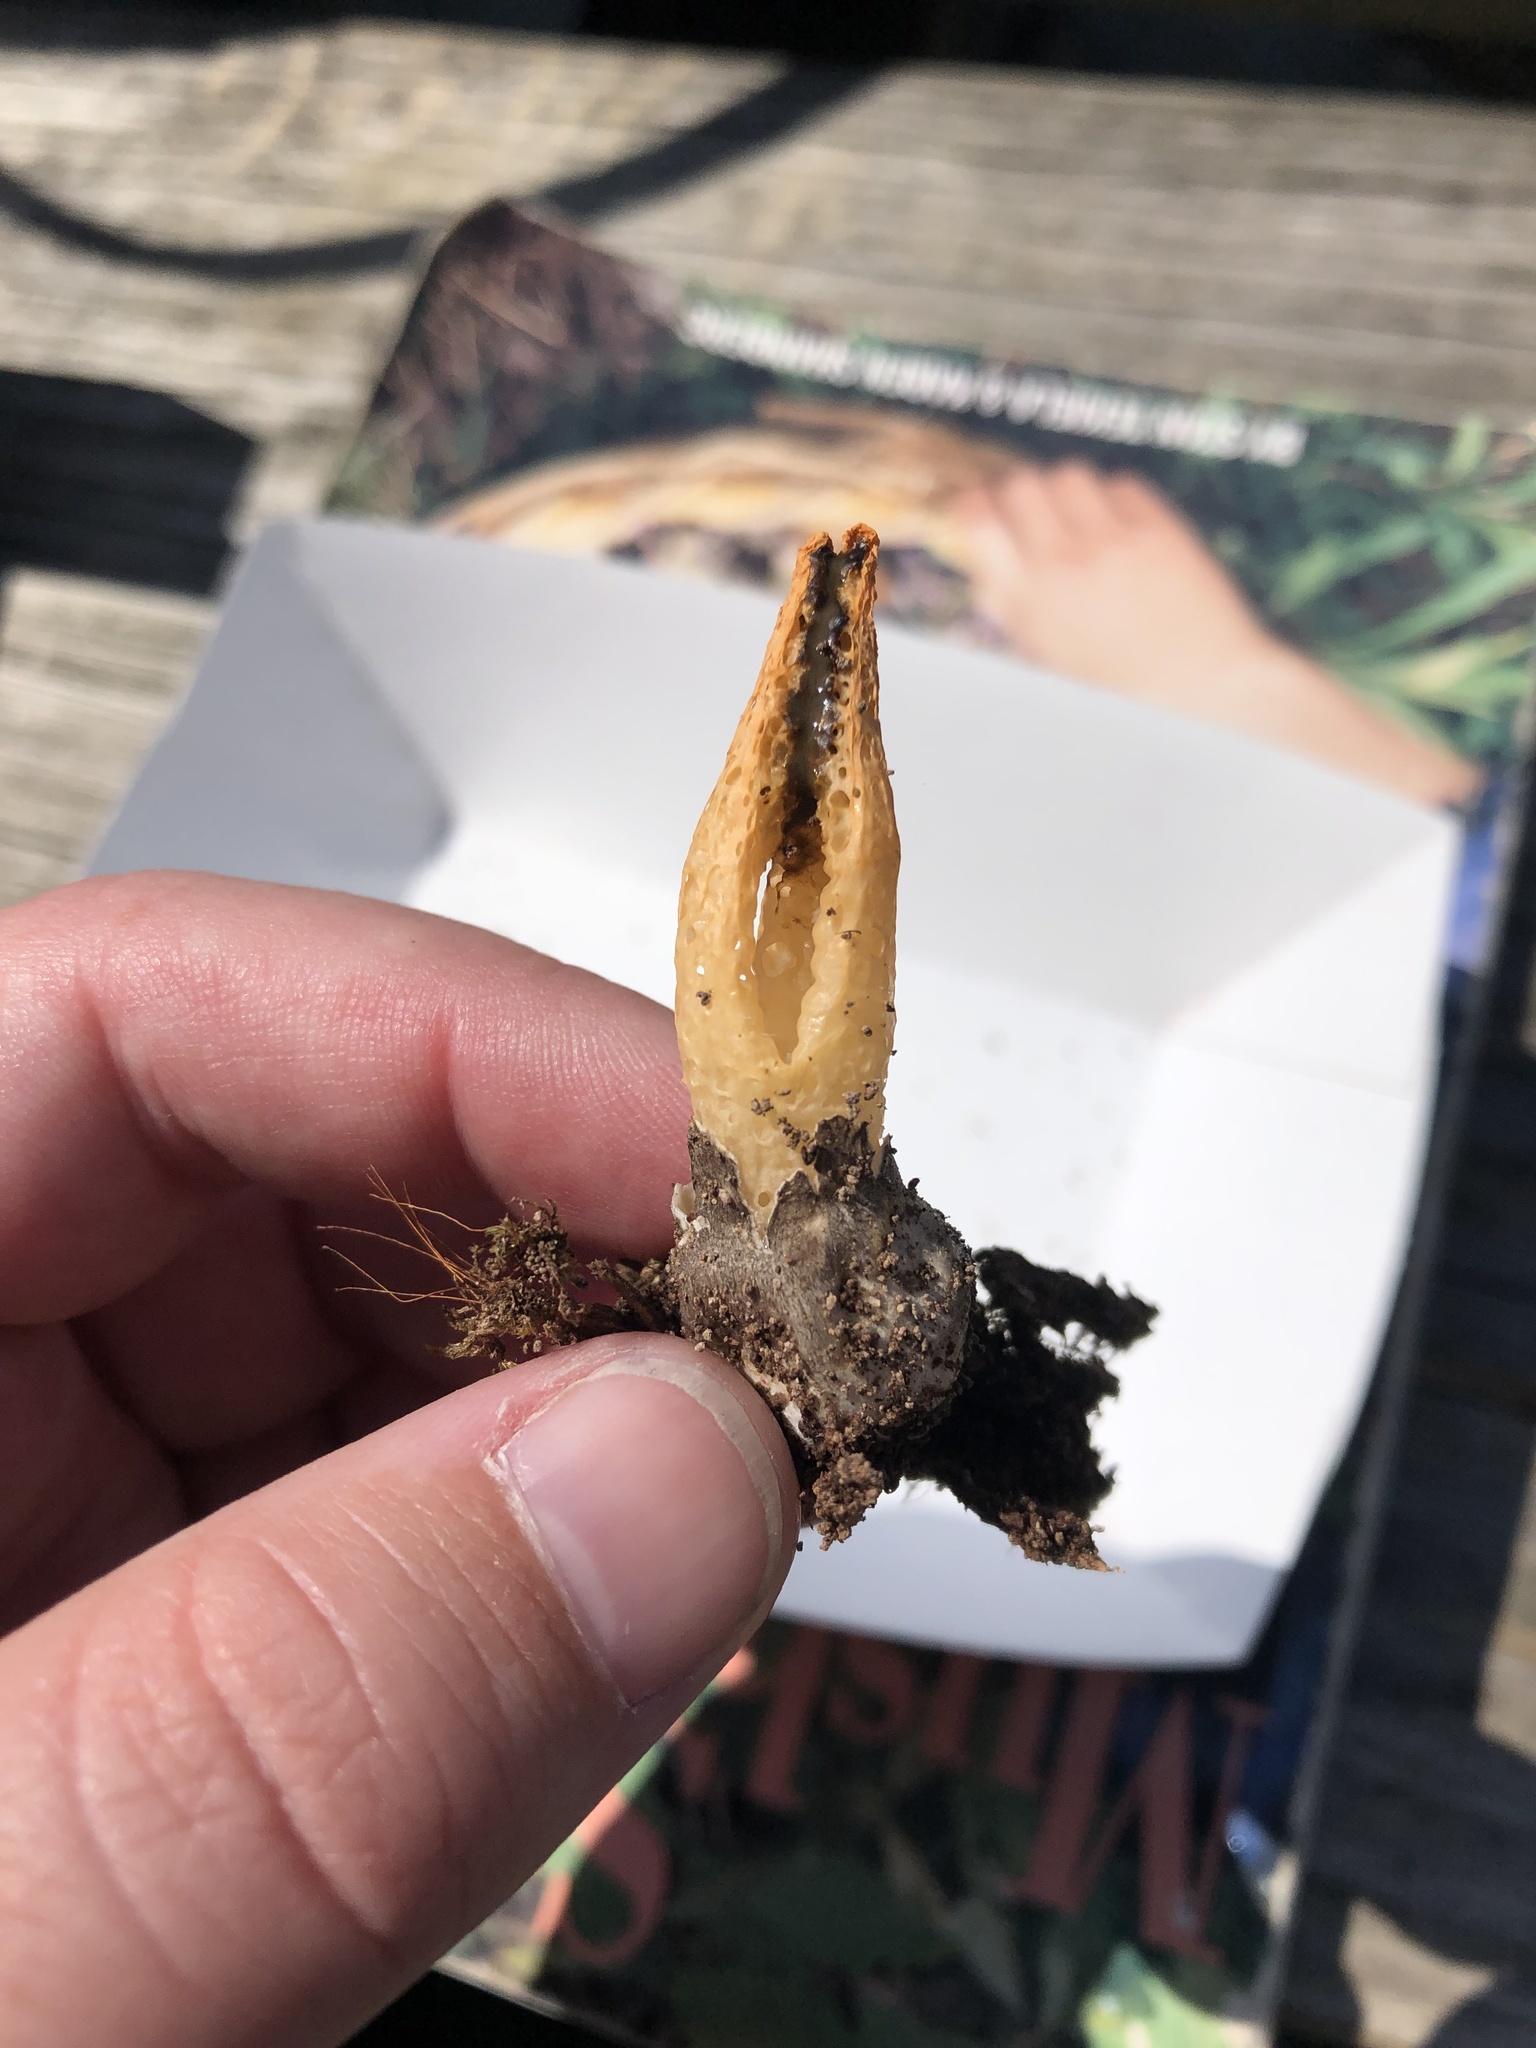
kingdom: Fungi
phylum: Basidiomycota
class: Agaricomycetes
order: Phallales
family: Phallaceae
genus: Pseudocolus
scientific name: Pseudocolus fusiformis
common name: Stinky squid
